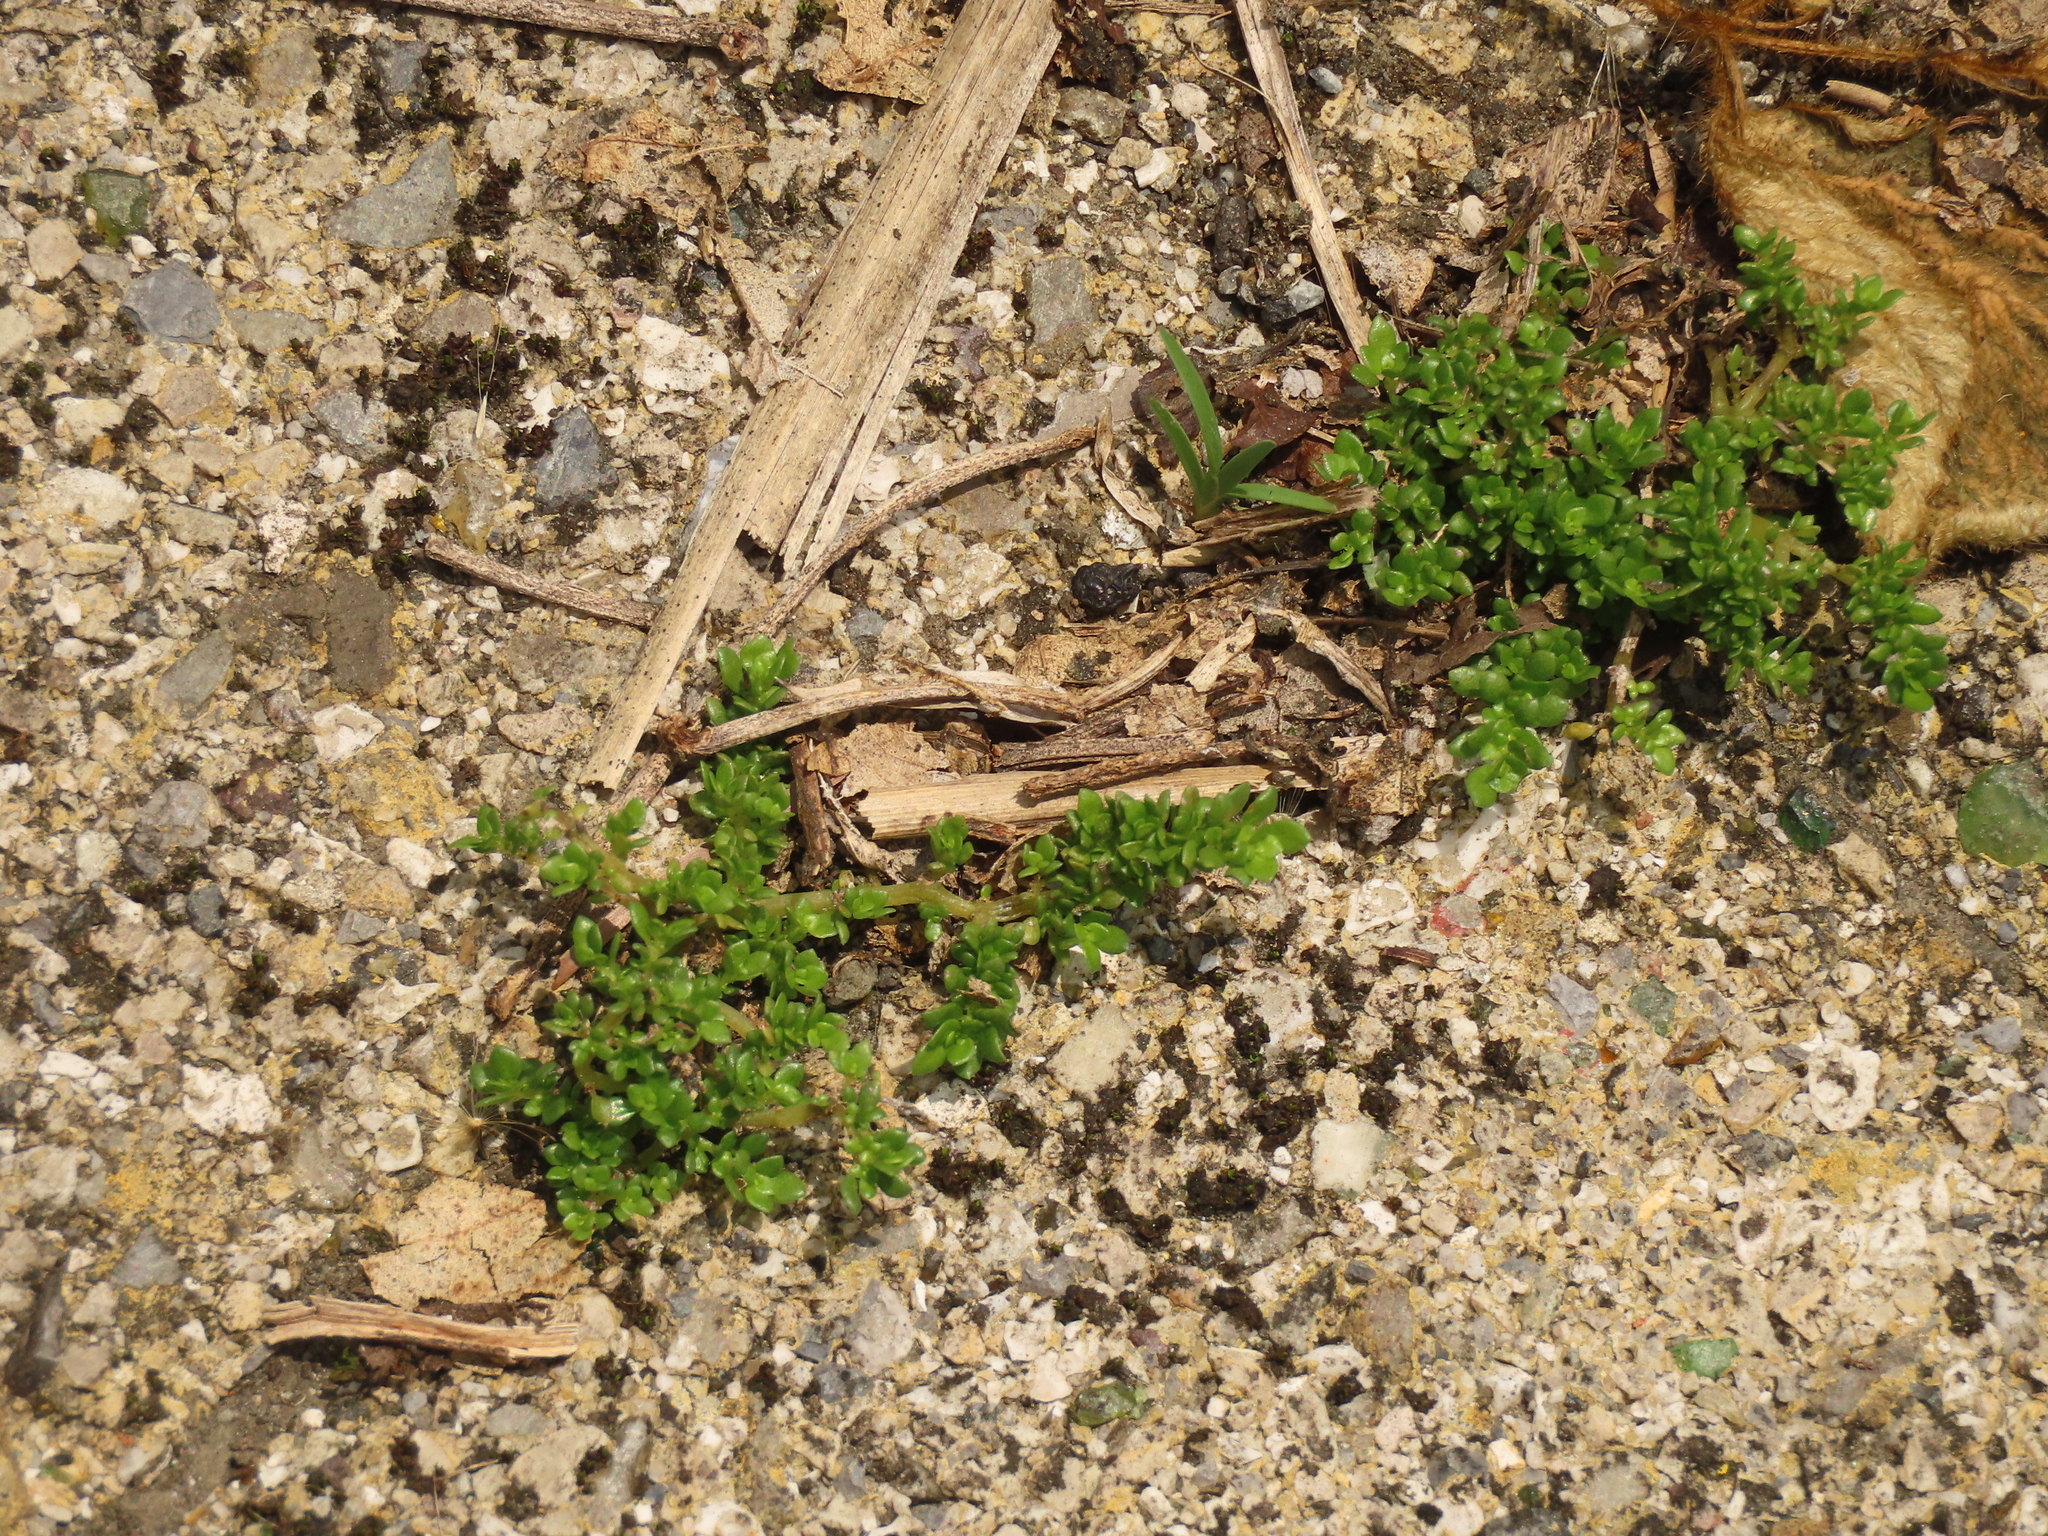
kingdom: Plantae
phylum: Tracheophyta
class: Magnoliopsida
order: Rosales
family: Urticaceae
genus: Pilea
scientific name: Pilea microphylla
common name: Artillery-plant
